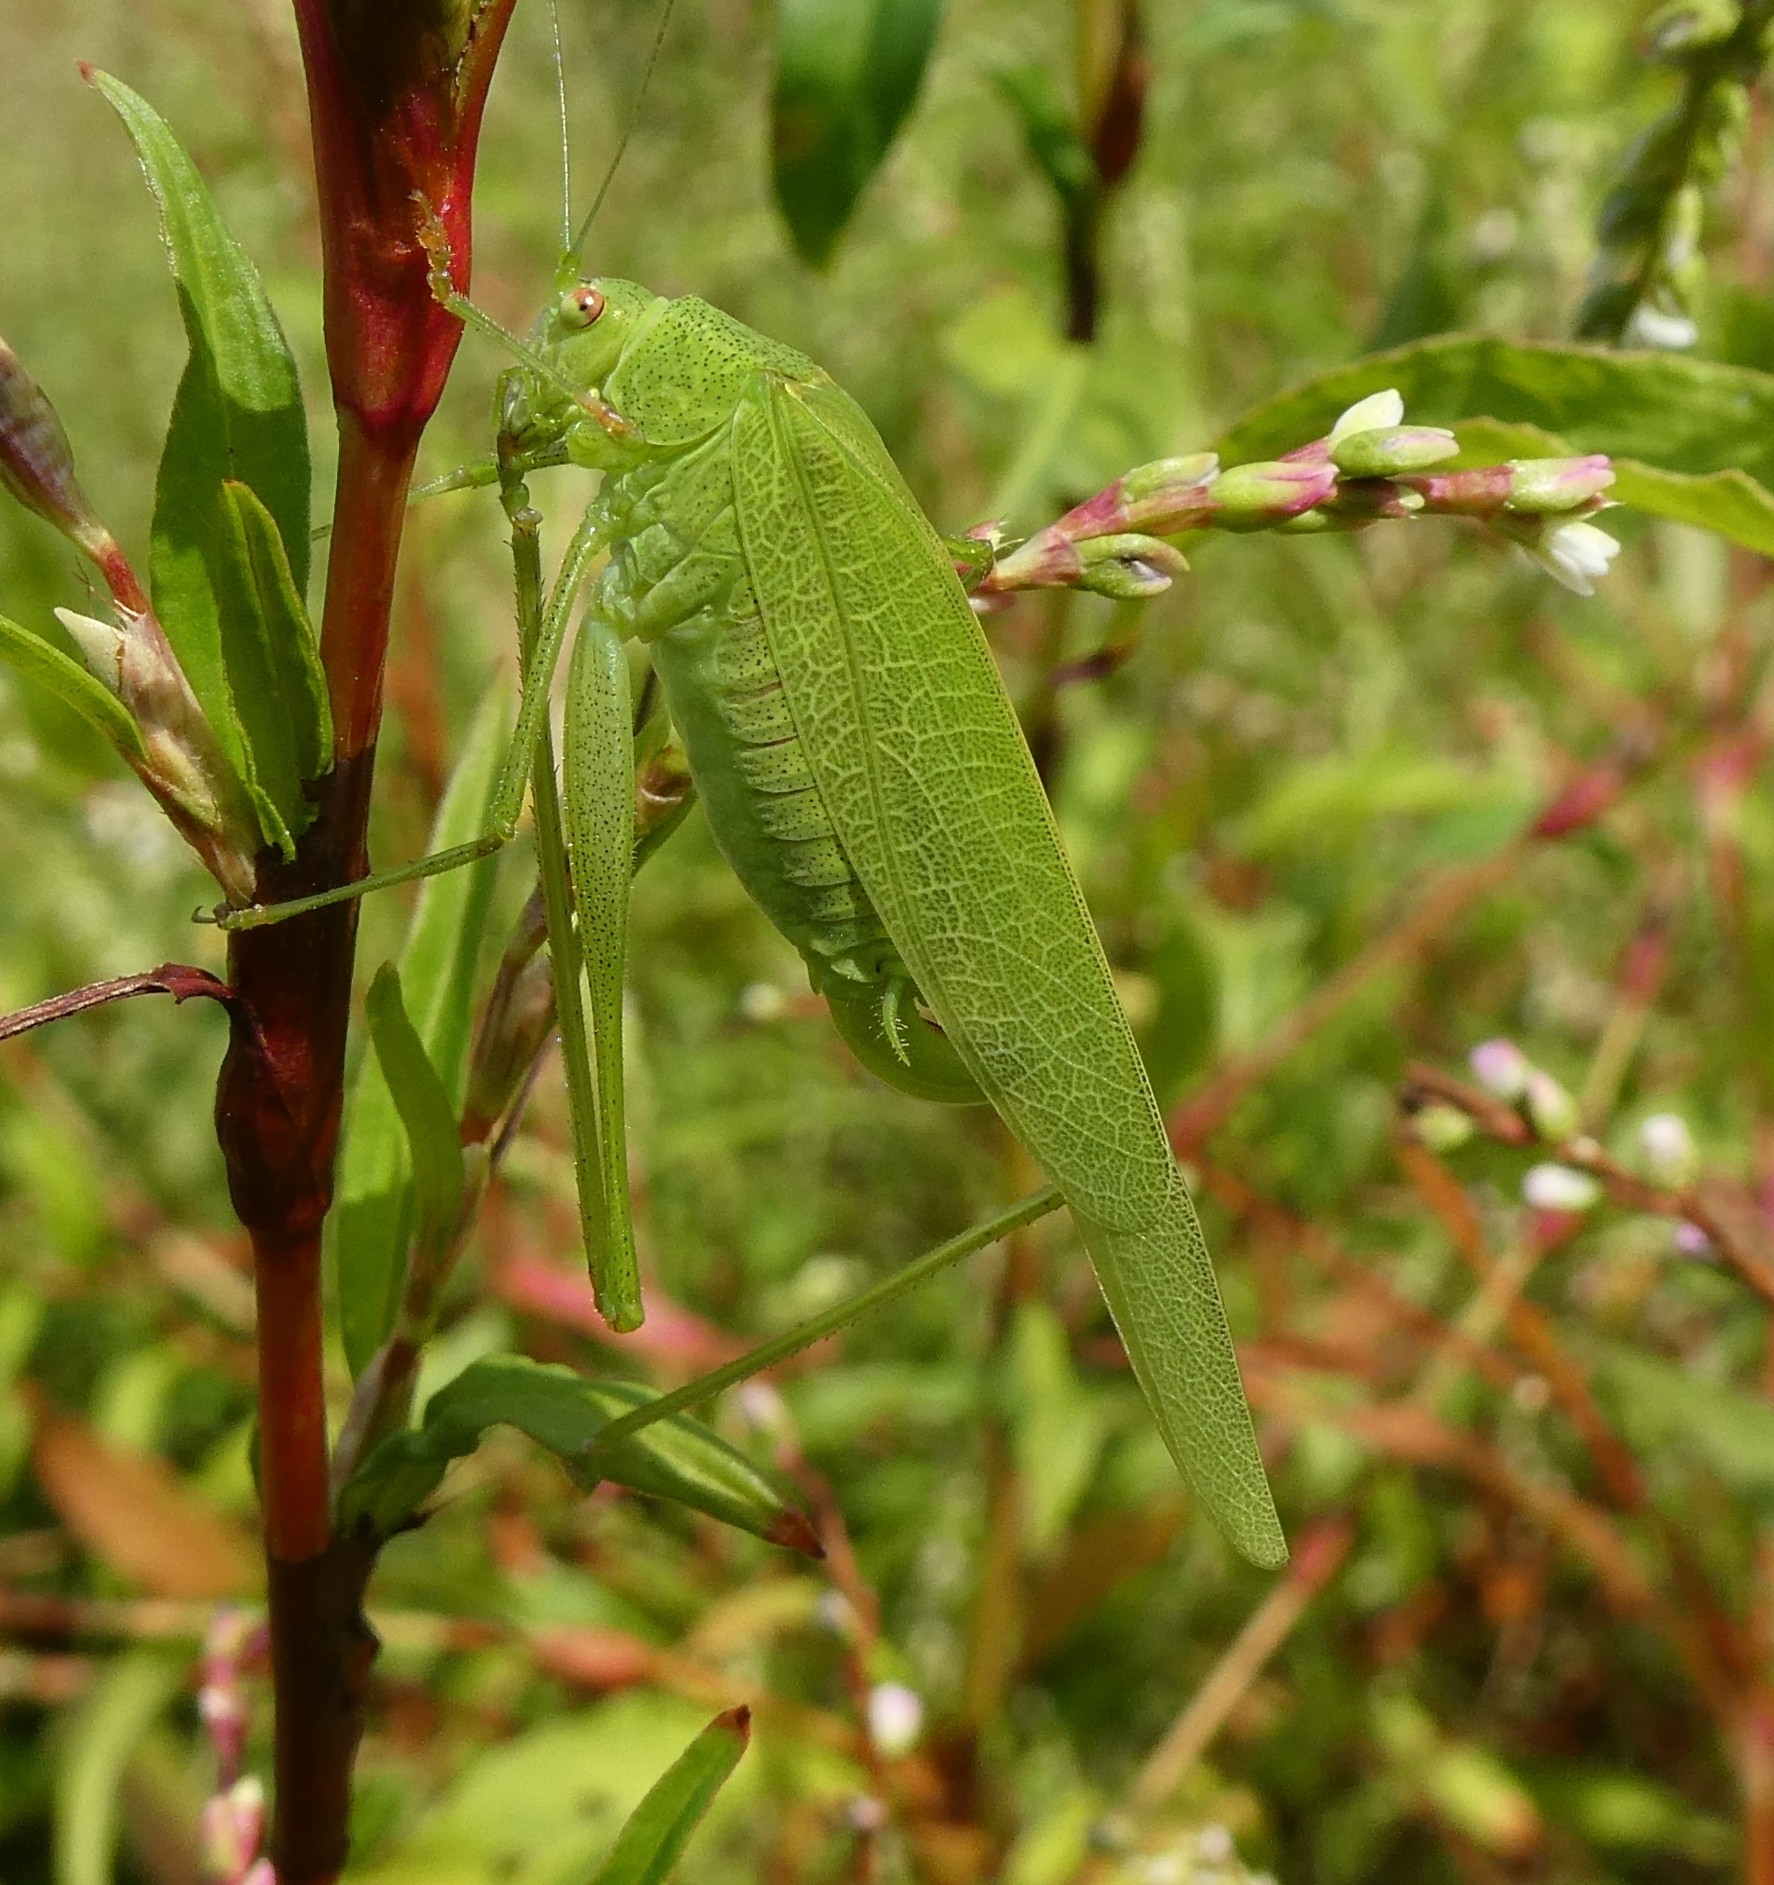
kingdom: Animalia
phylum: Arthropoda
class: Insecta
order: Orthoptera
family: Tettigoniidae
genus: Phaneroptera
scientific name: Phaneroptera nana
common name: Southern sickle bush-cricket
